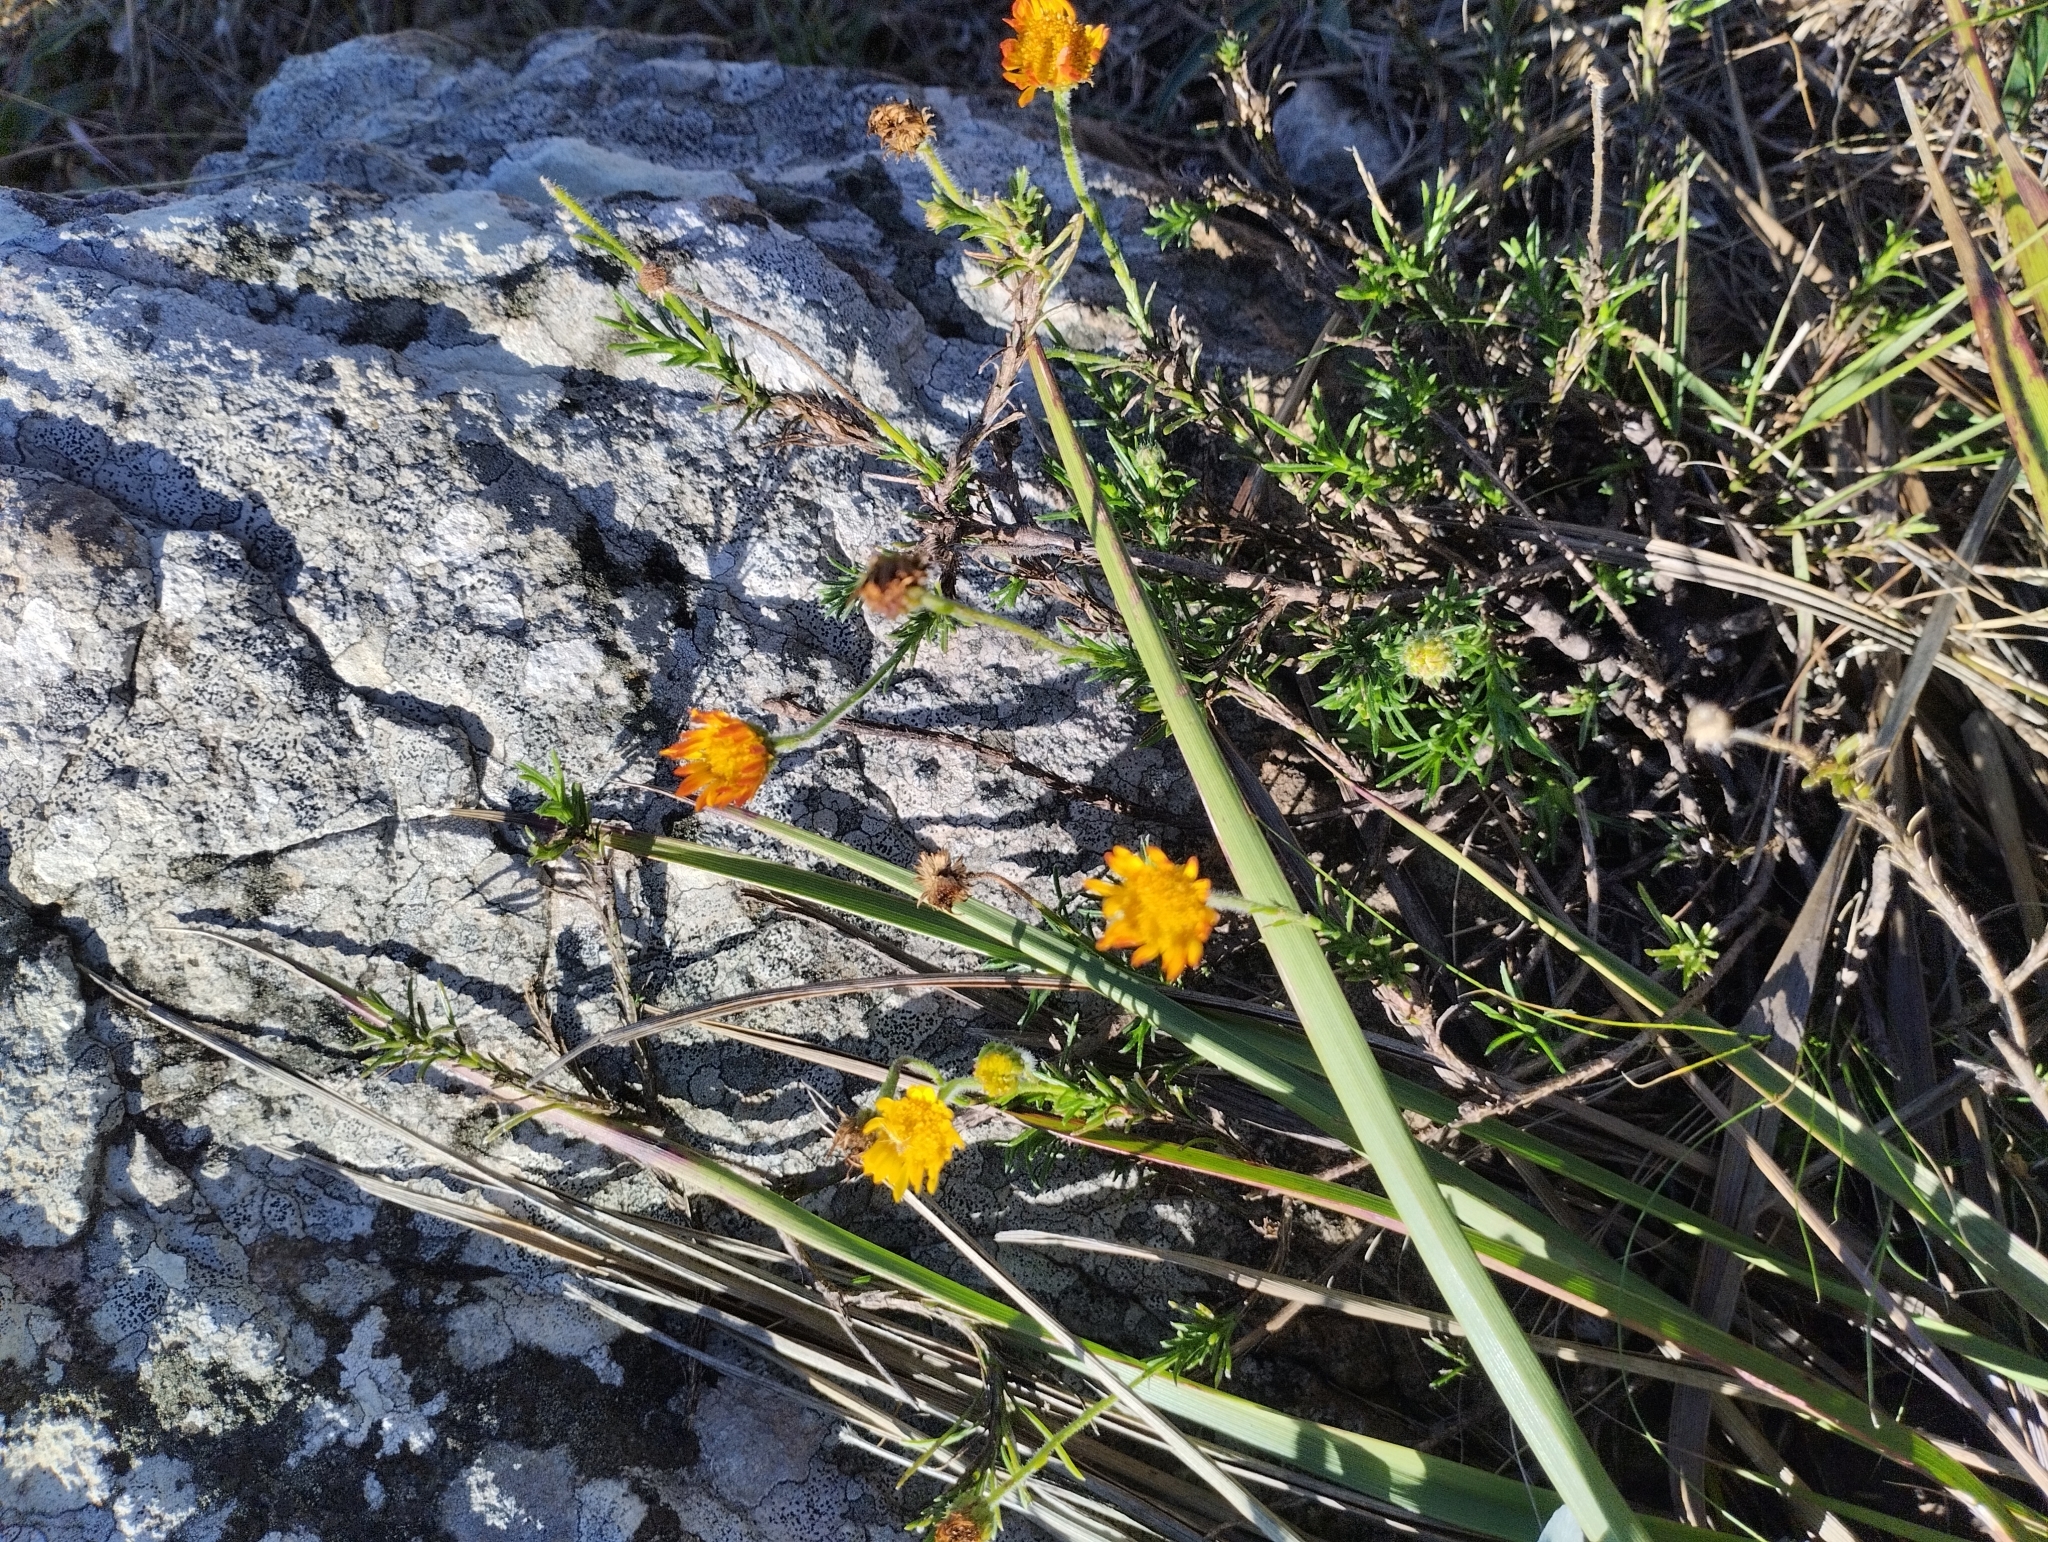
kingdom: Plantae
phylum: Tracheophyta
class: Magnoliopsida
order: Asterales
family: Asteraceae
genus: Neja
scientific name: Neja pinifolia
